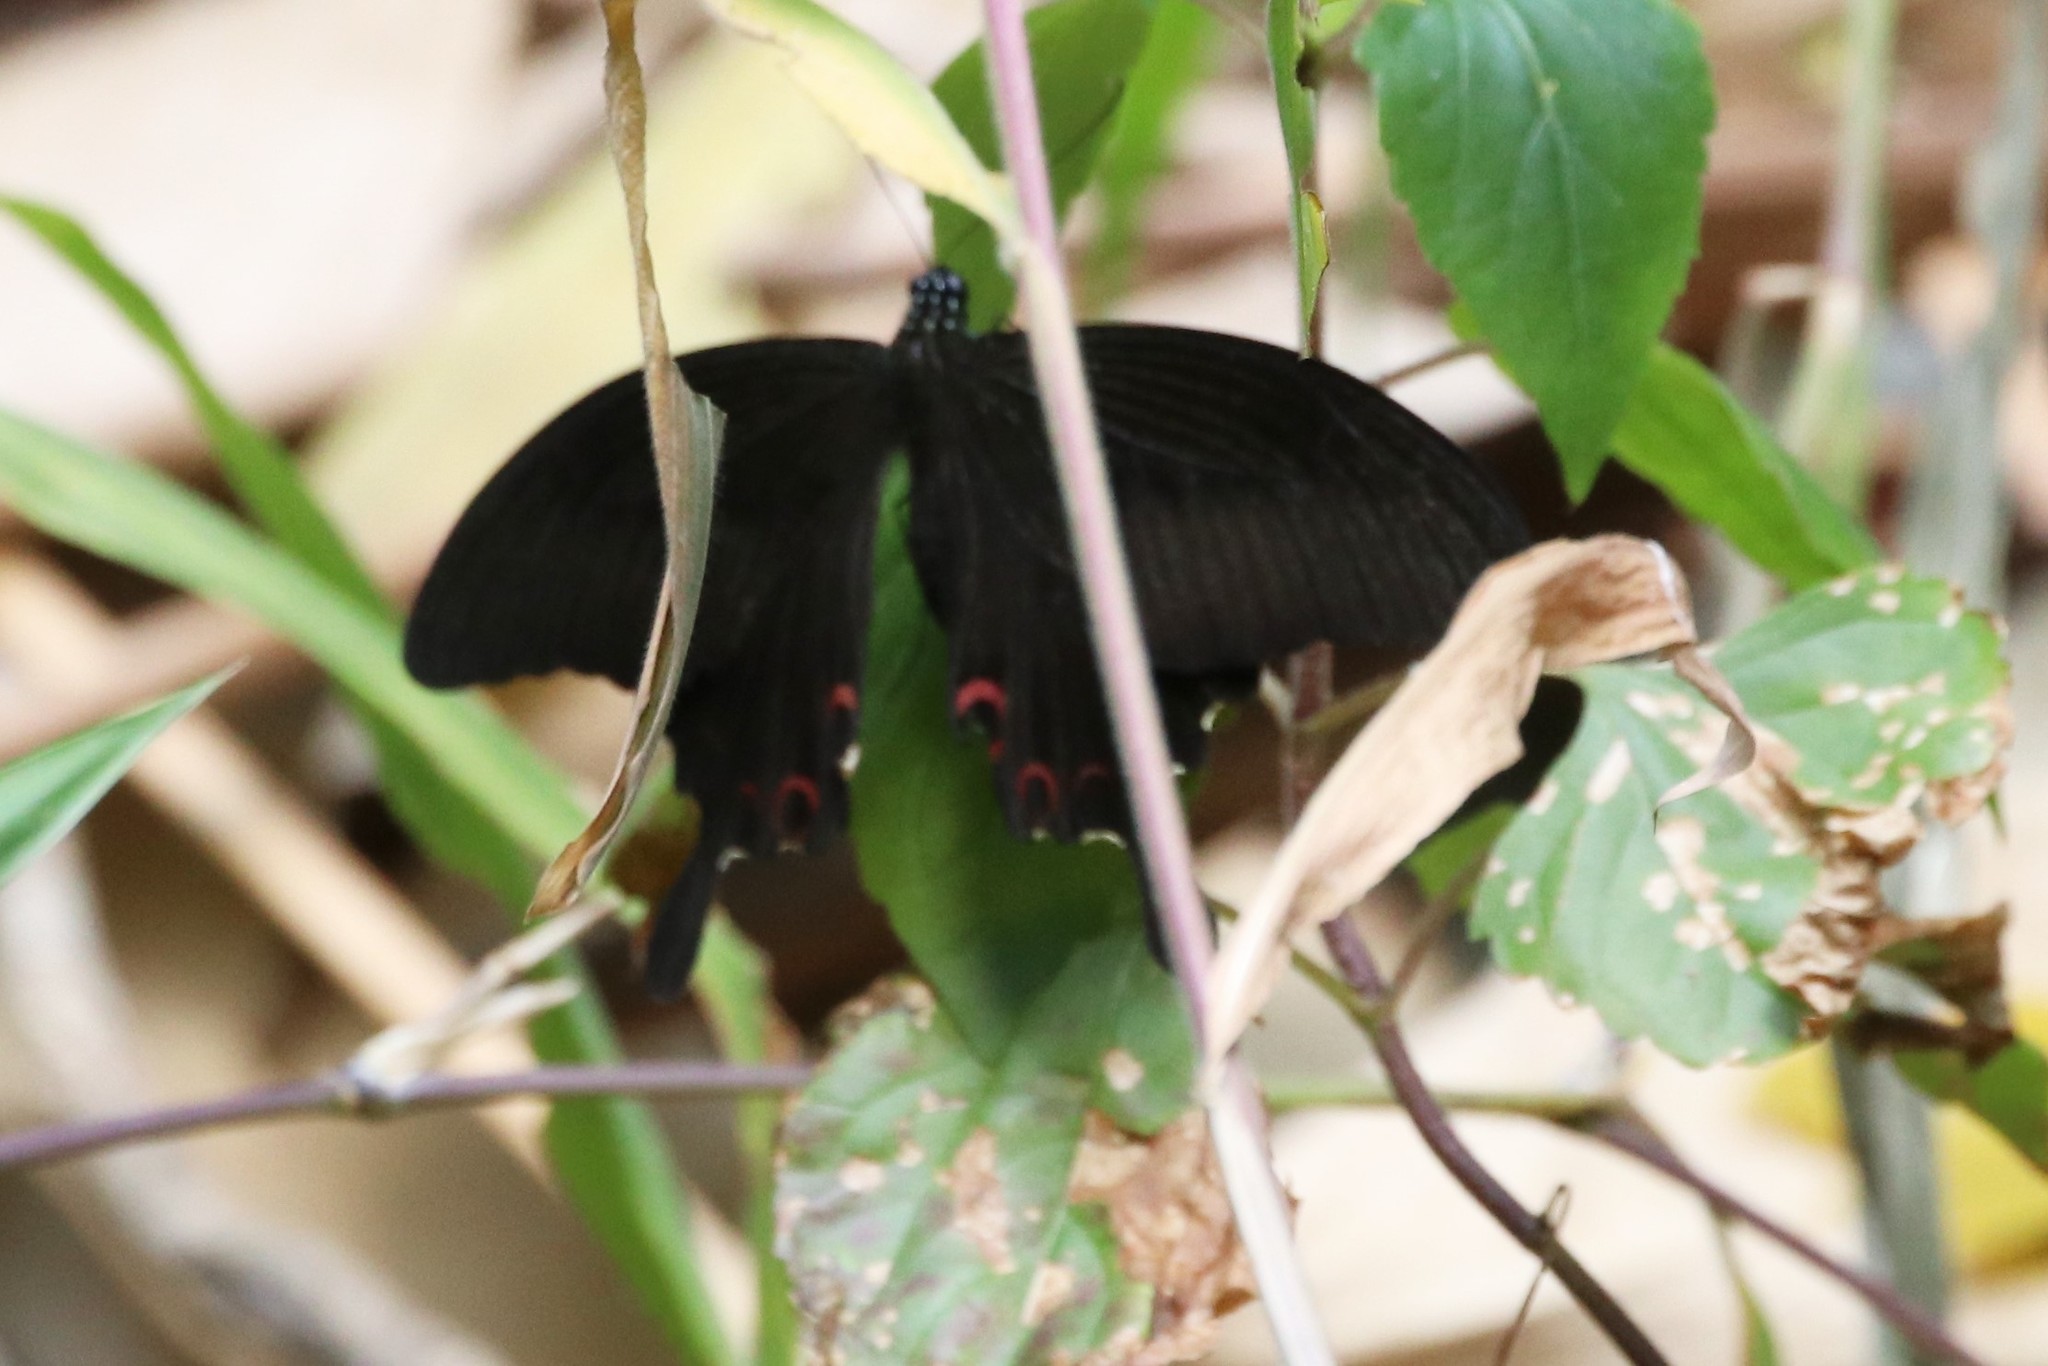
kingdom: Animalia
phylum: Arthropoda
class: Insecta
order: Lepidoptera
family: Papilionidae
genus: Papilio
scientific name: Papilio helenus
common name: Red helen
